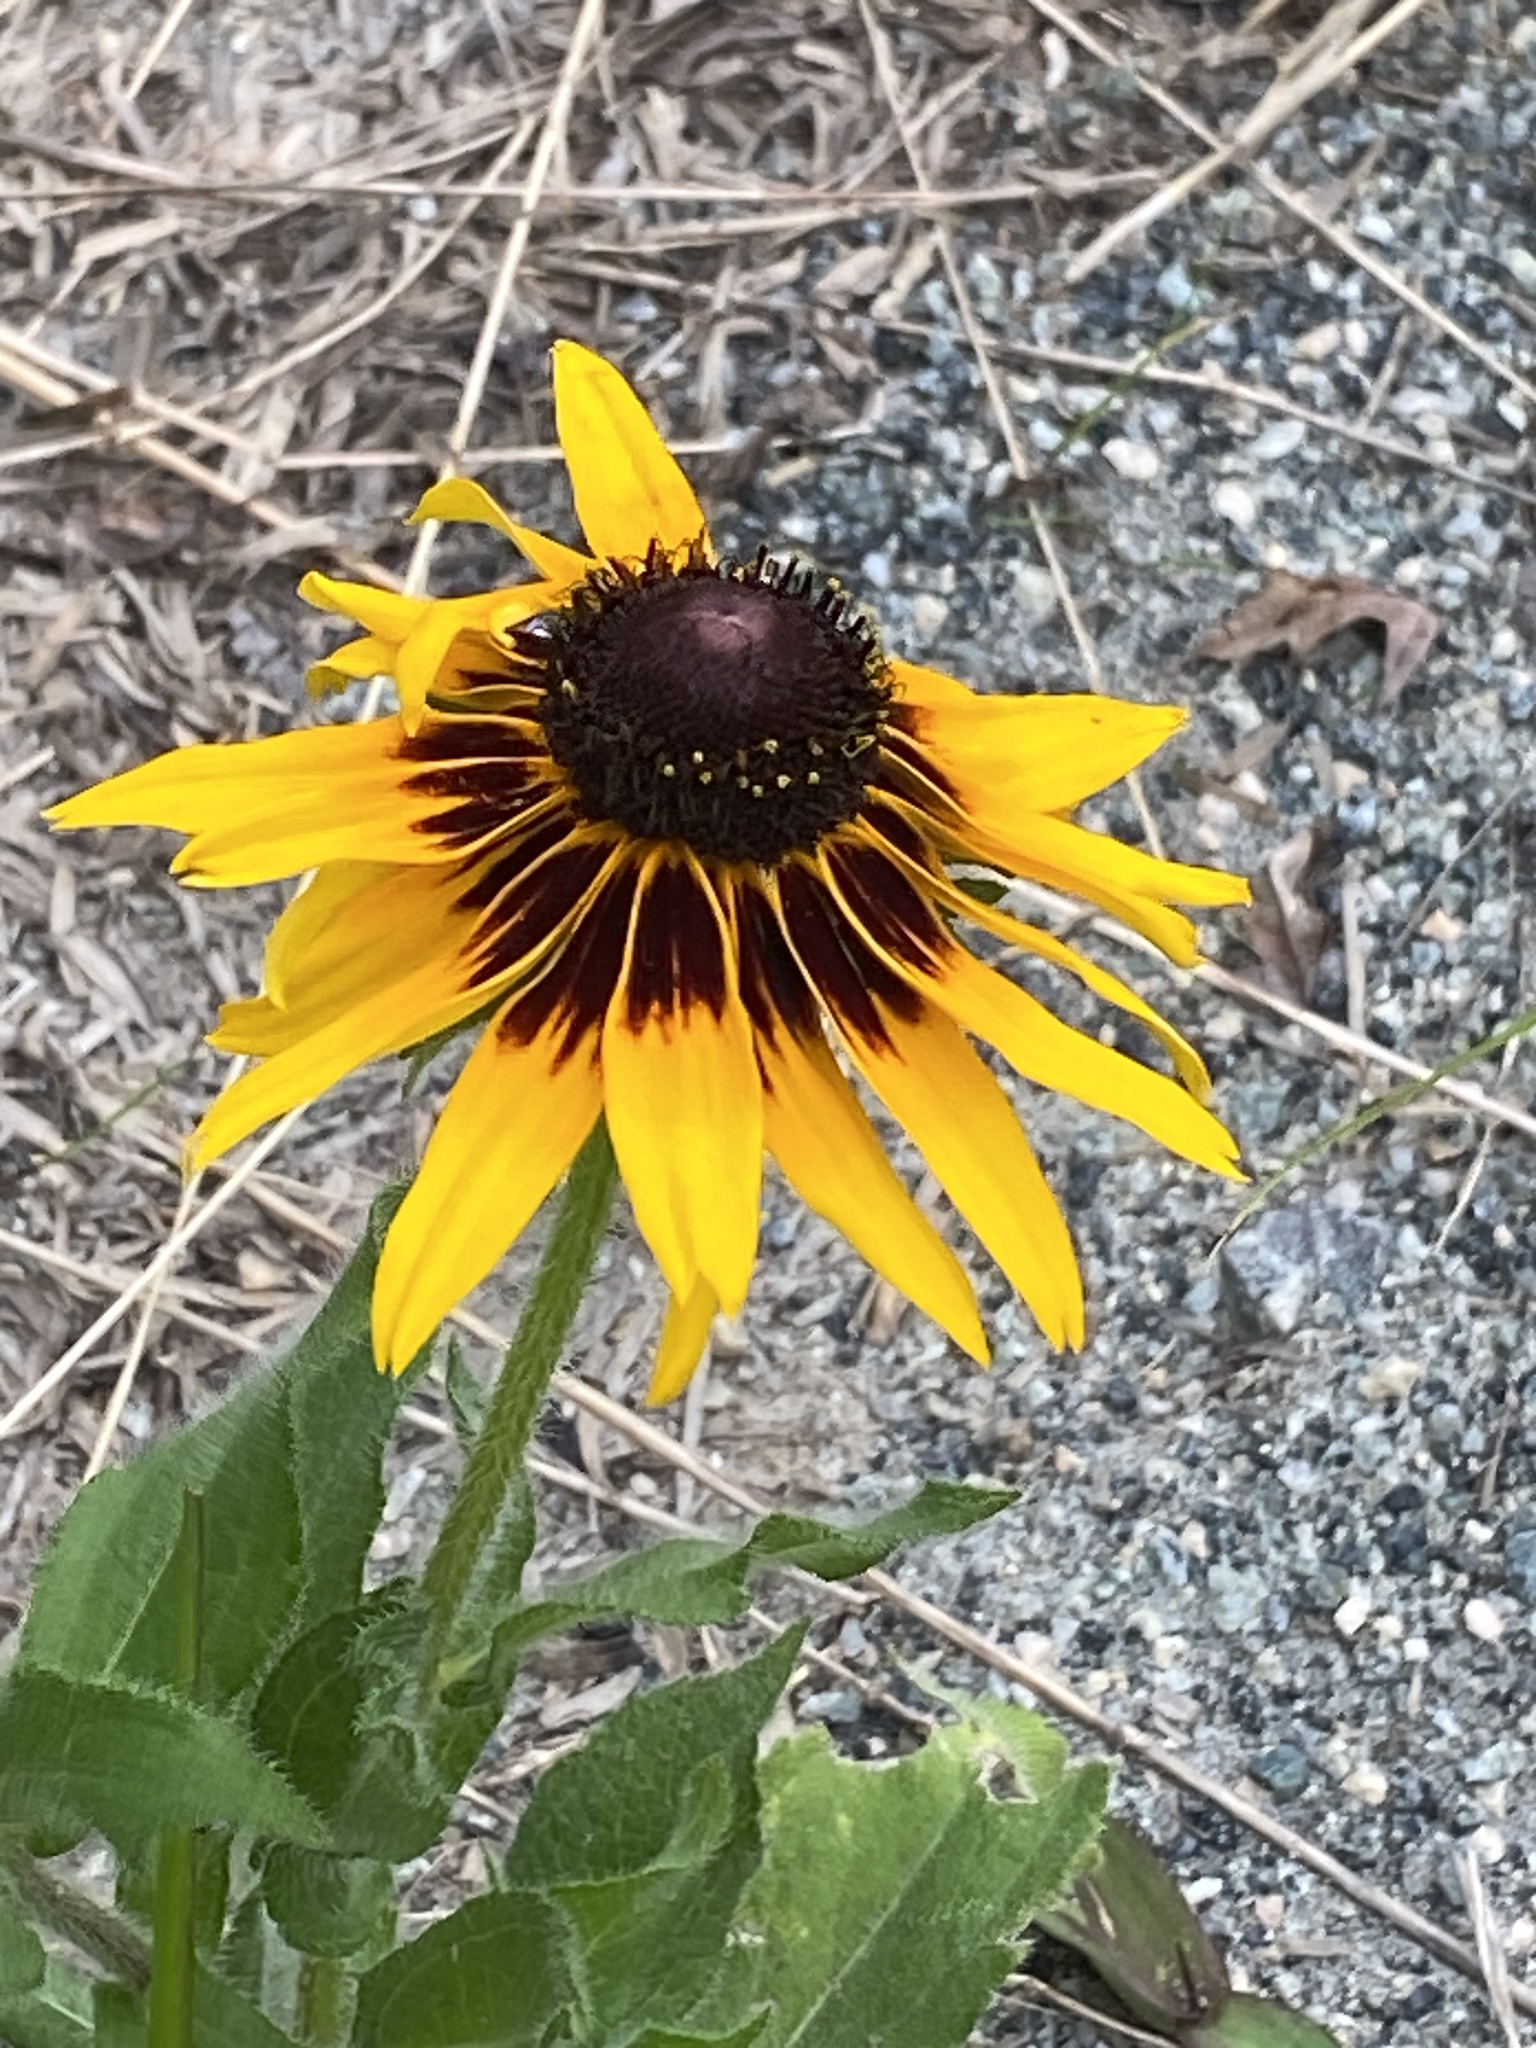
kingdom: Plantae
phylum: Tracheophyta
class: Magnoliopsida
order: Asterales
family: Asteraceae
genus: Rudbeckia
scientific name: Rudbeckia hirta
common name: Black-eyed-susan
